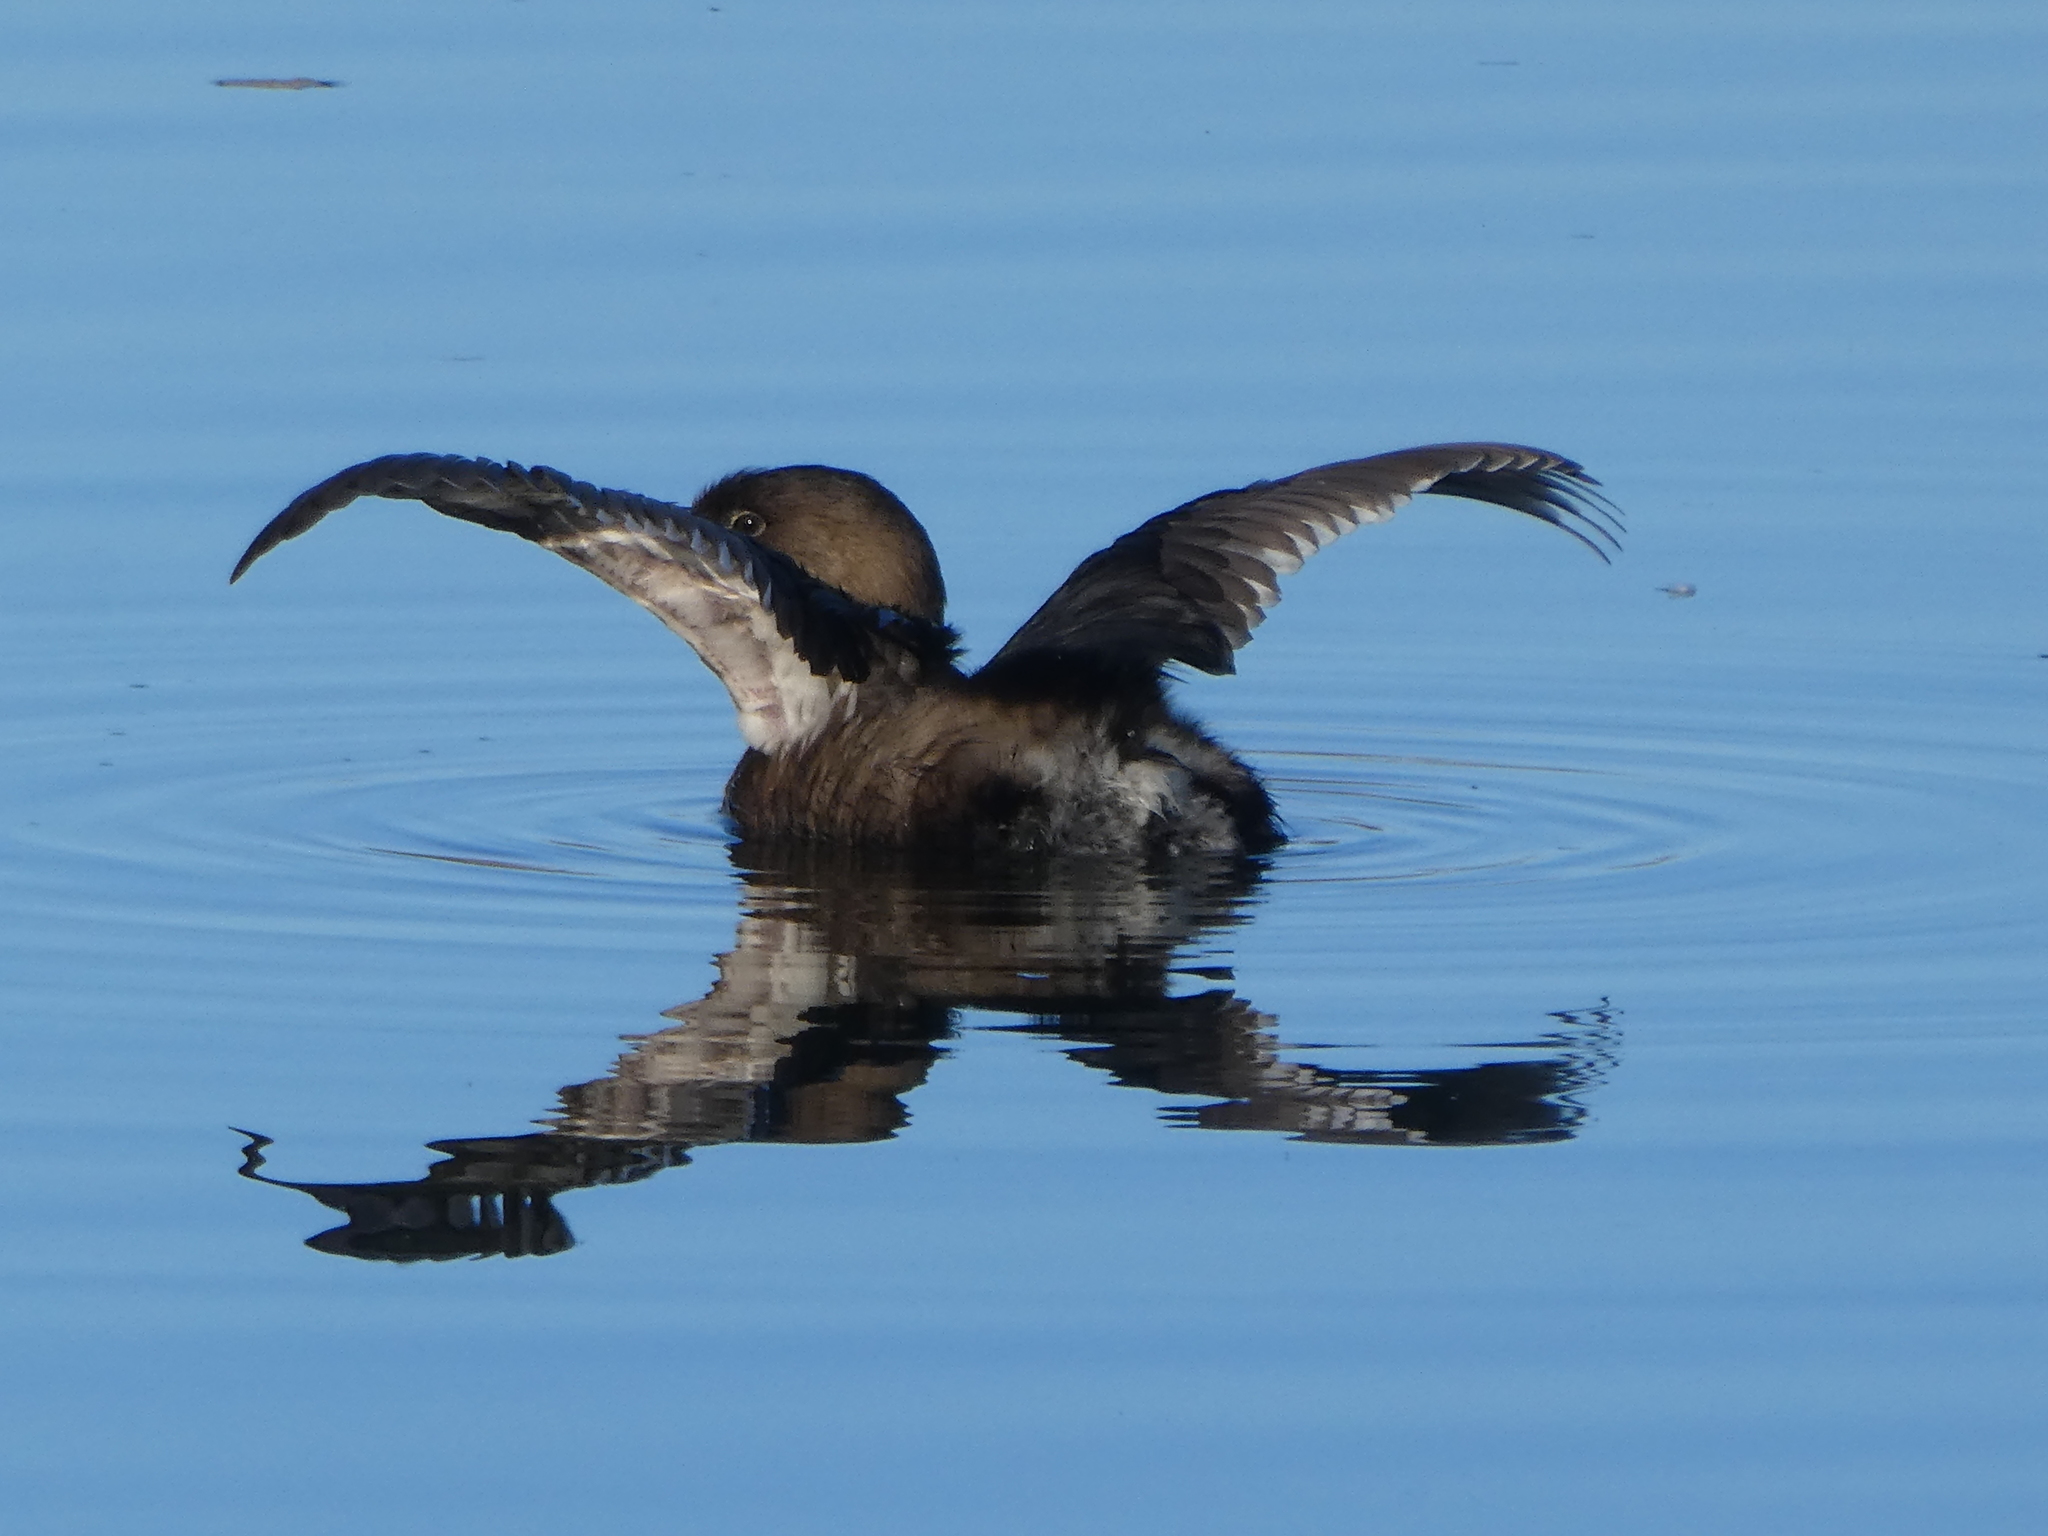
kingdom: Animalia
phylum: Chordata
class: Aves
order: Podicipediformes
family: Podicipedidae
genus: Podilymbus
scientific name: Podilymbus podiceps
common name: Pied-billed grebe
